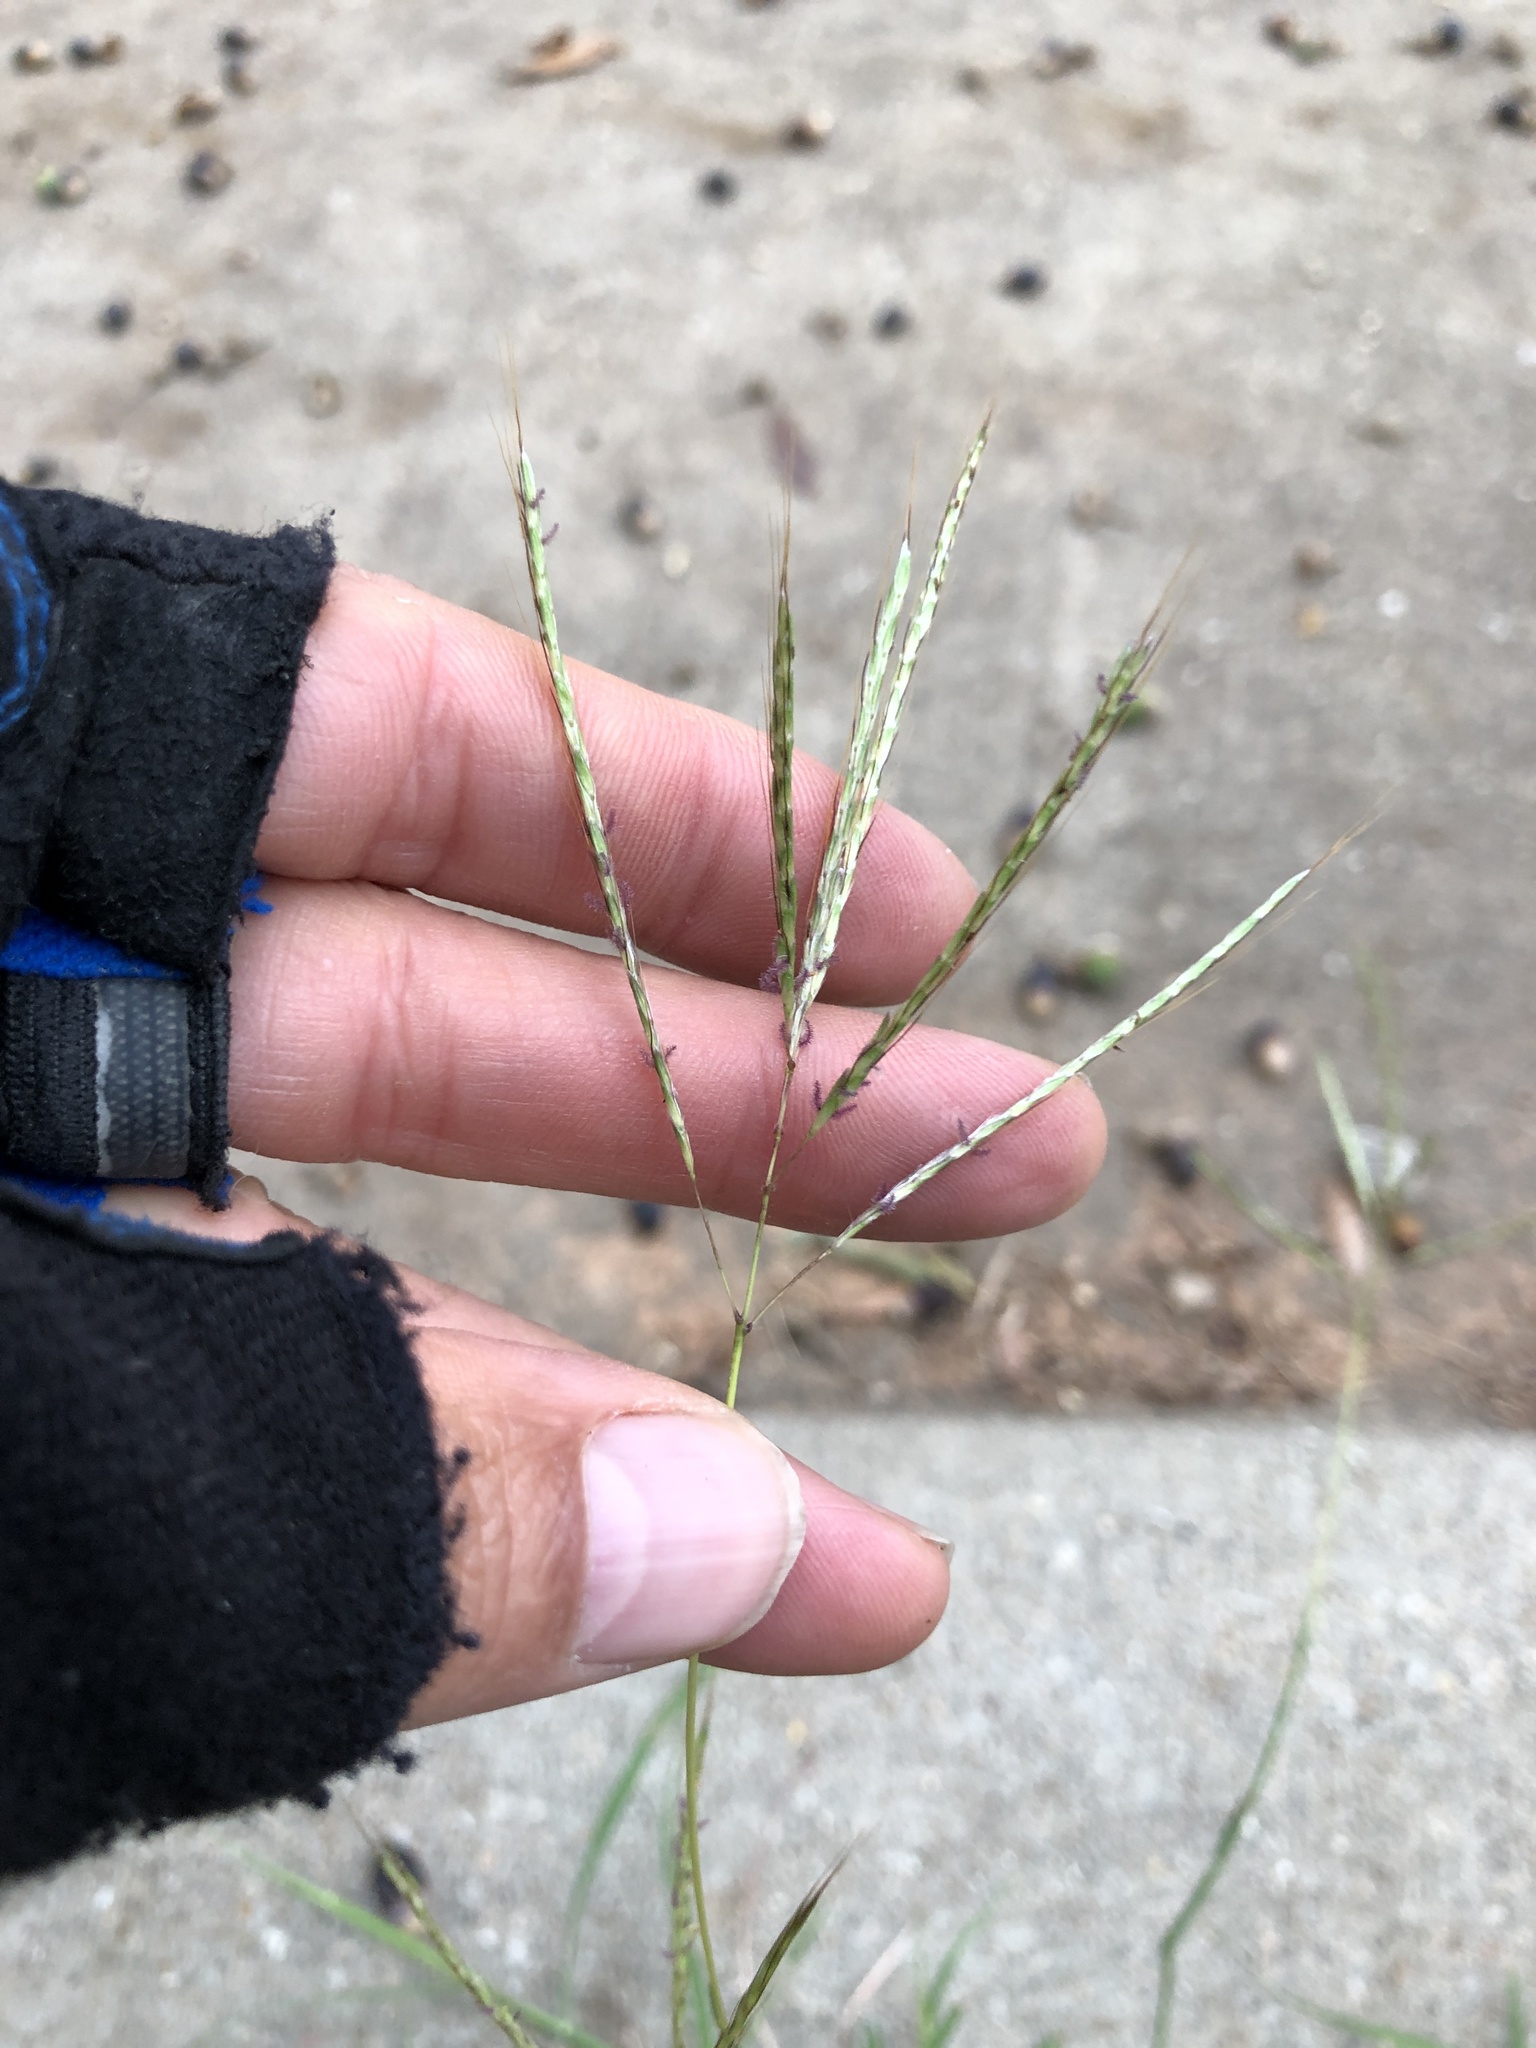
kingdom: Plantae
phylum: Tracheophyta
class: Liliopsida
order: Poales
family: Poaceae
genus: Bothriochloa
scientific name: Bothriochloa ischaemum
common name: Yellow bluestem
